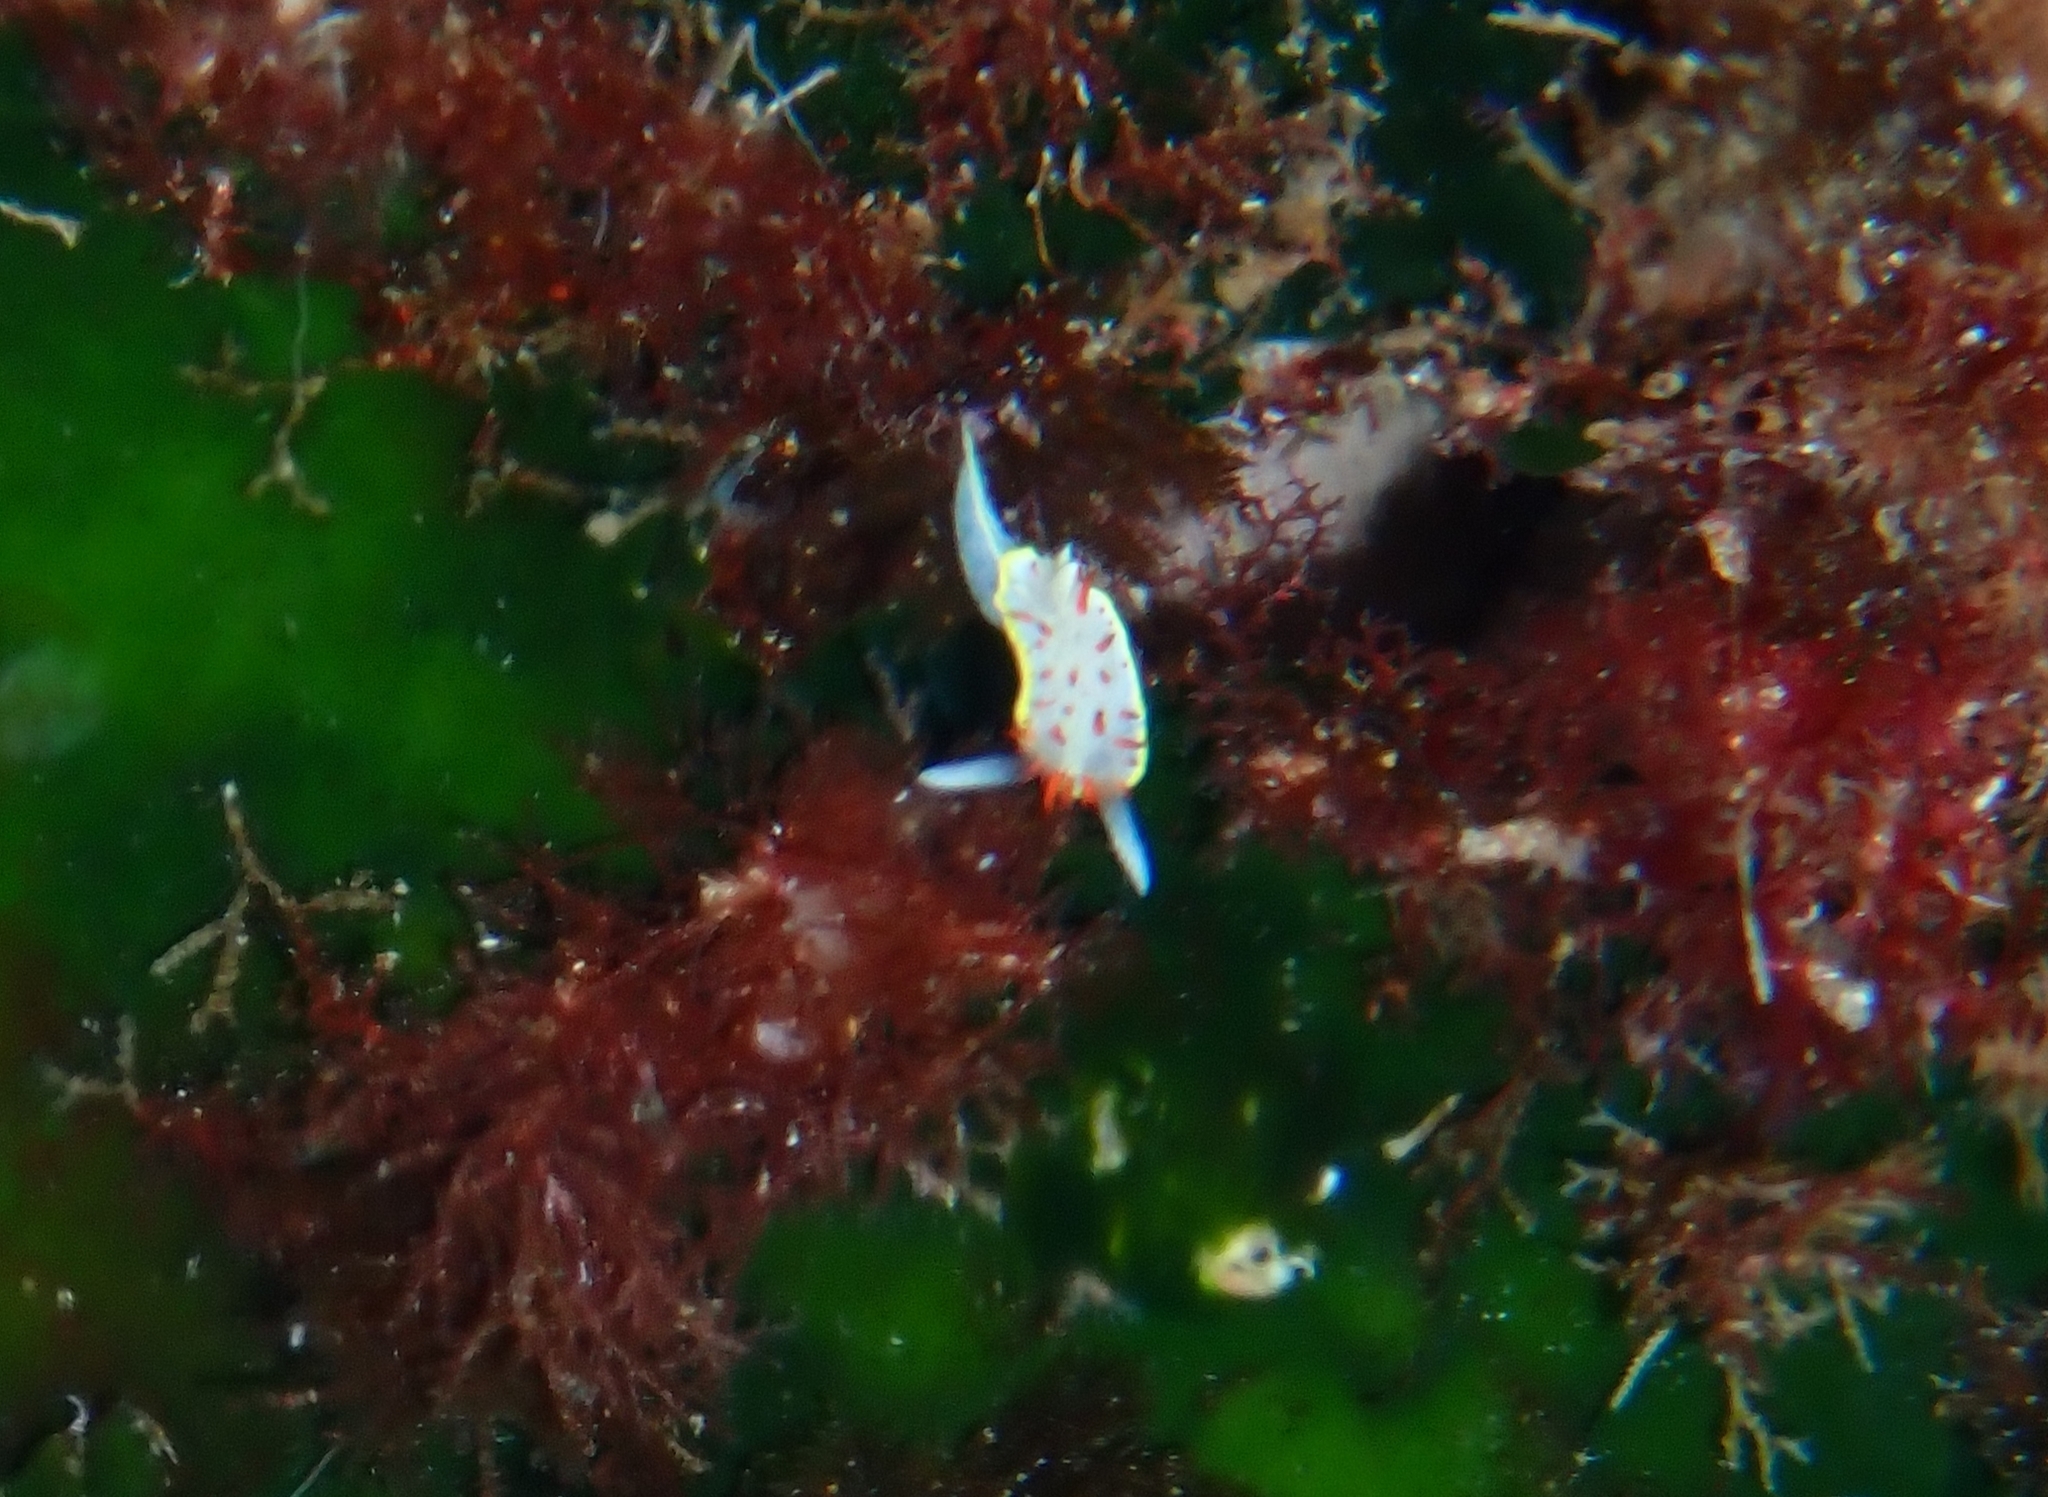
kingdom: Animalia
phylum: Mollusca
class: Gastropoda
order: Nudibranchia
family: Calycidorididae
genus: Diaphorodoris
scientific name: Diaphorodoris papillata
